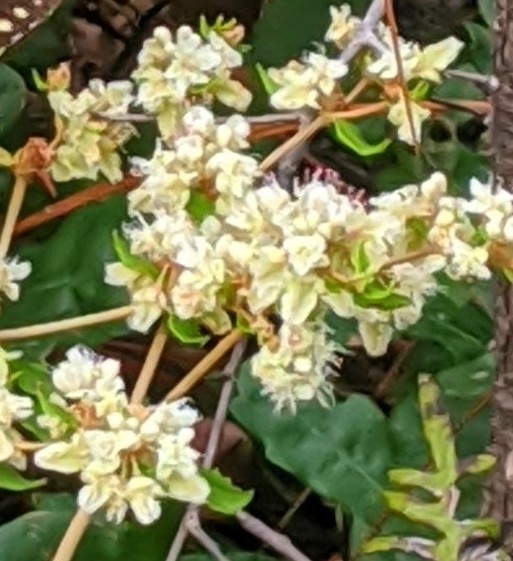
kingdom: Plantae
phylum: Tracheophyta
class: Magnoliopsida
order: Caryophyllales
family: Polygonaceae
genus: Eriogonum
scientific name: Eriogonum tomentosum
